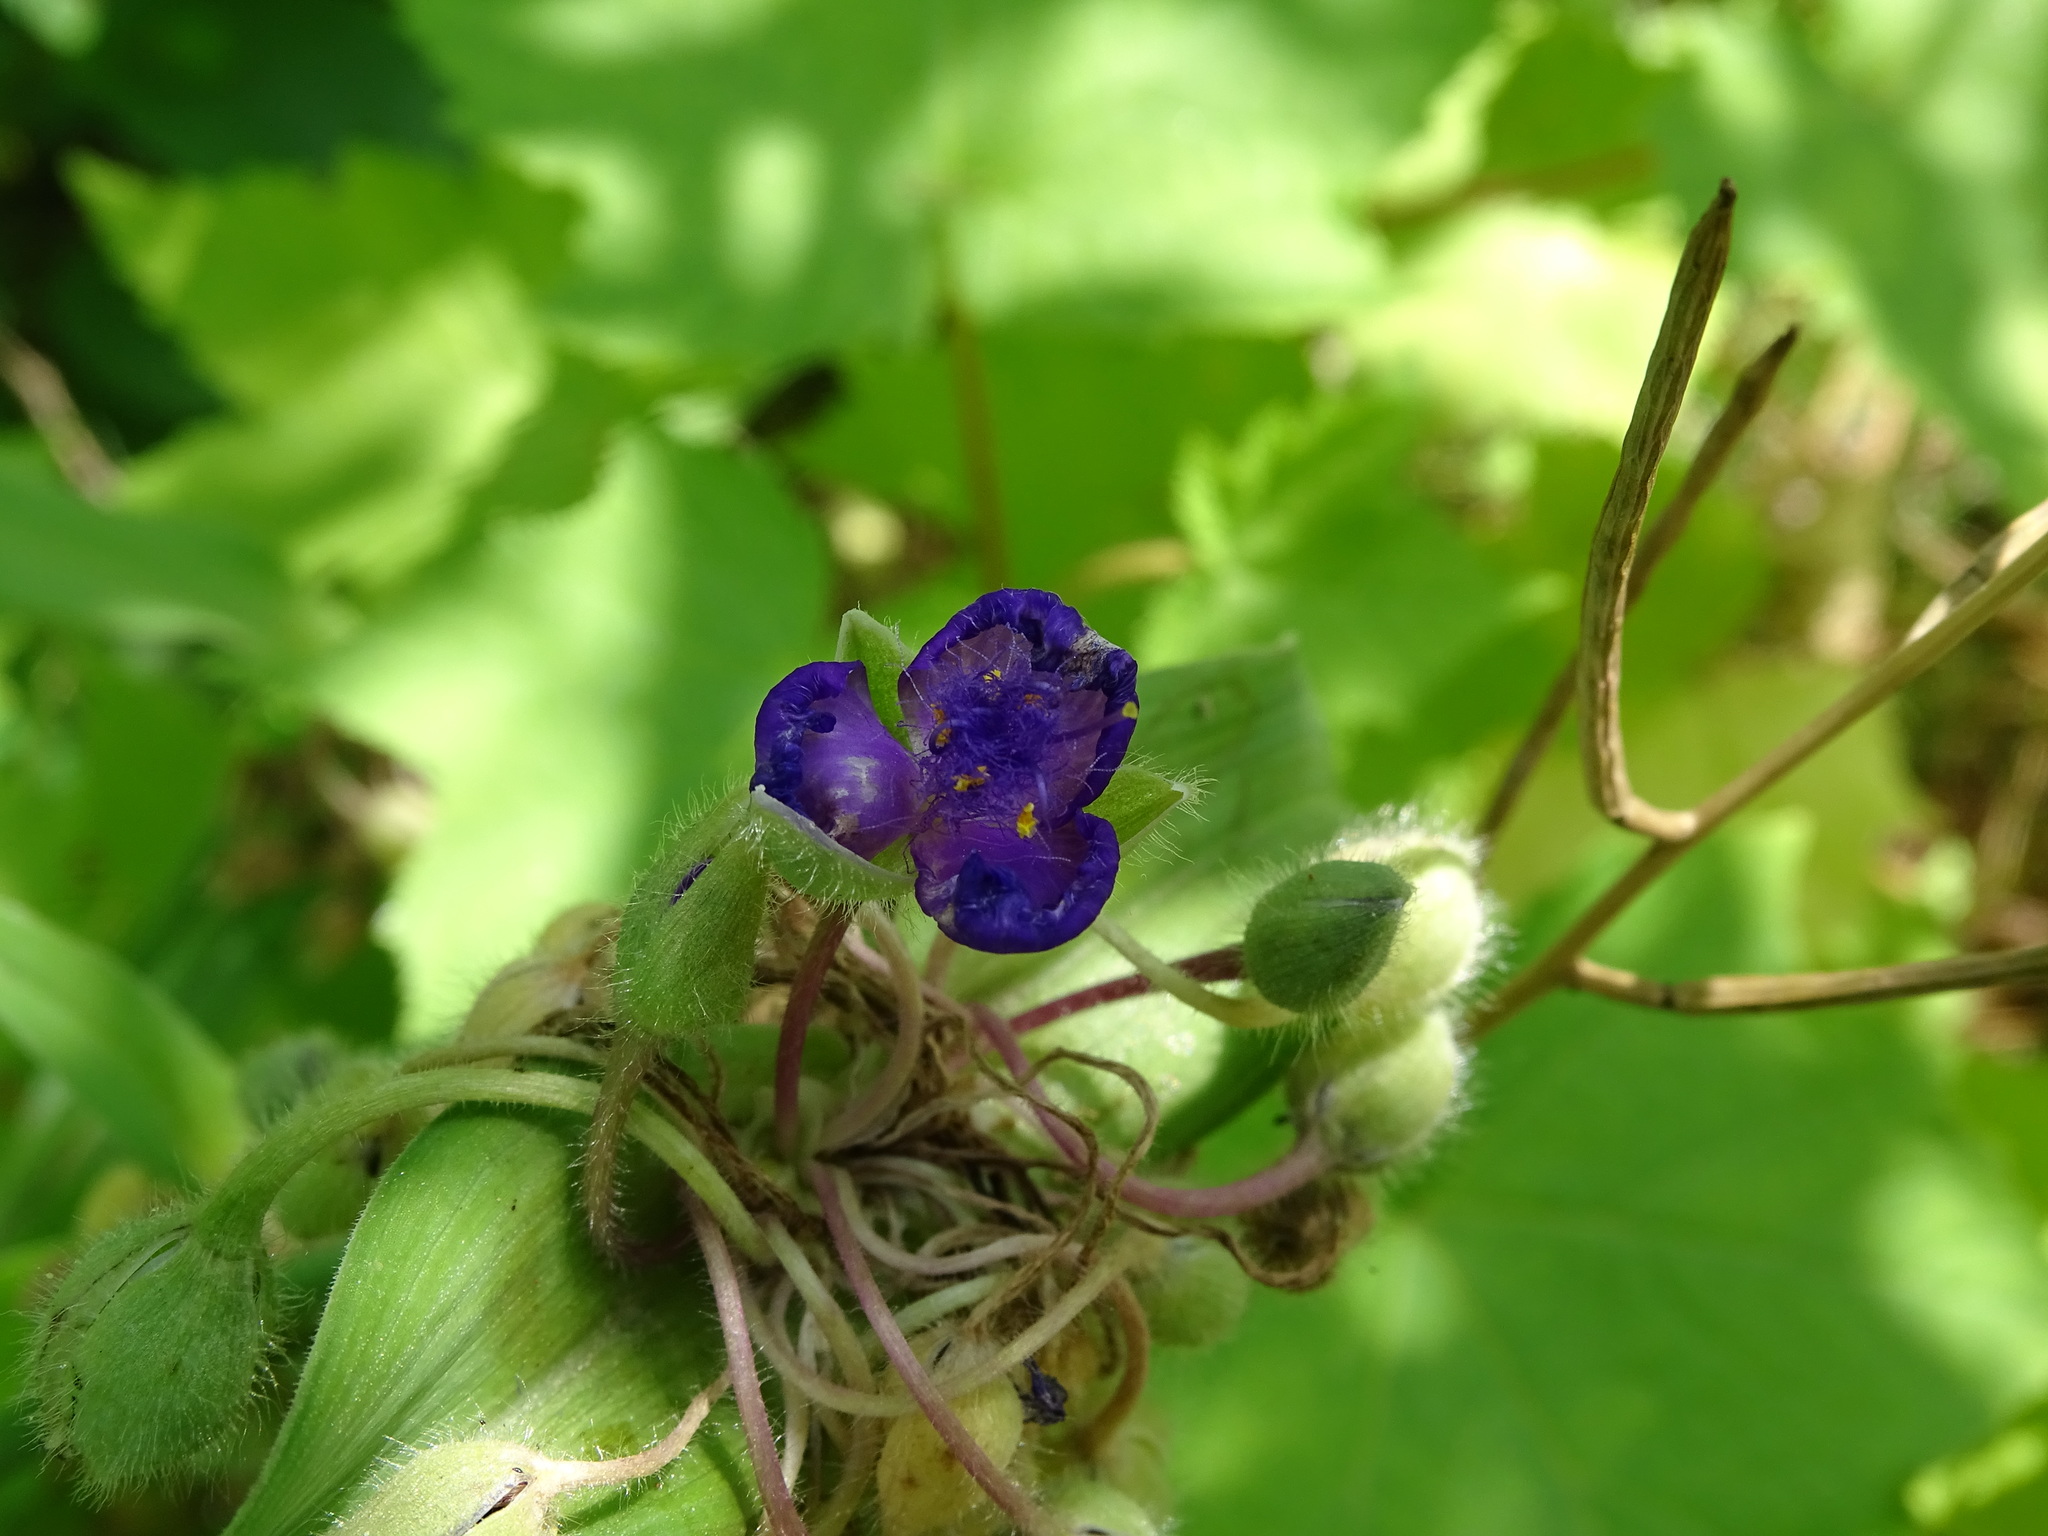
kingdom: Plantae
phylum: Tracheophyta
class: Liliopsida
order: Commelinales
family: Commelinaceae
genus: Tradescantia
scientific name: Tradescantia virginiana
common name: Spiderwort
